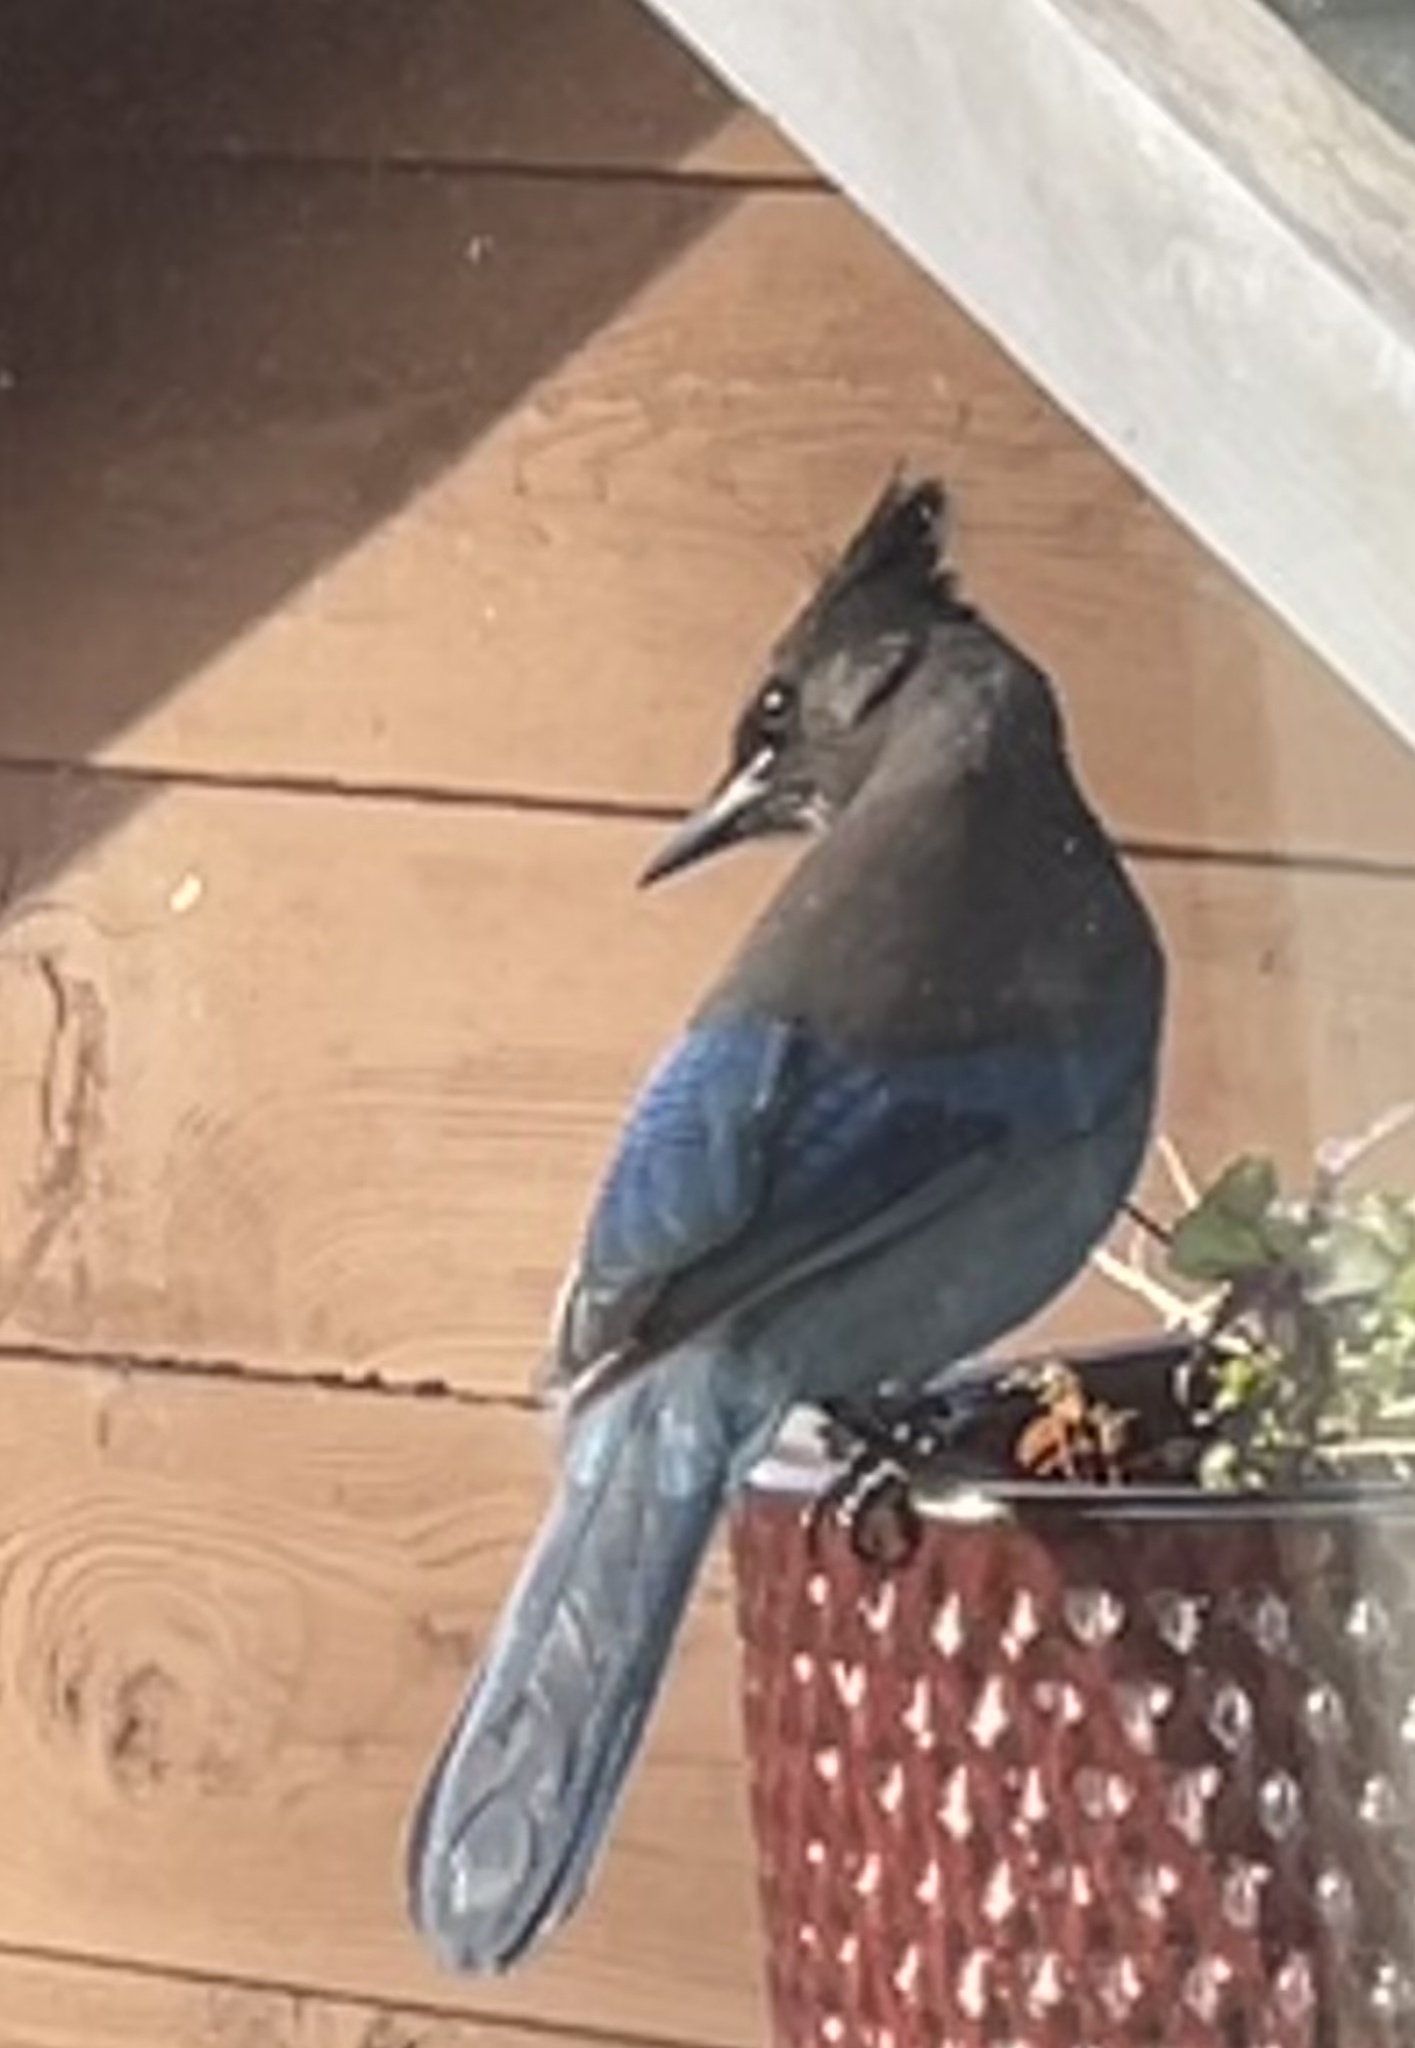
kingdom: Animalia
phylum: Chordata
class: Aves
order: Passeriformes
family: Corvidae
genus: Cyanocitta
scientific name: Cyanocitta stelleri
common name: Steller's jay
